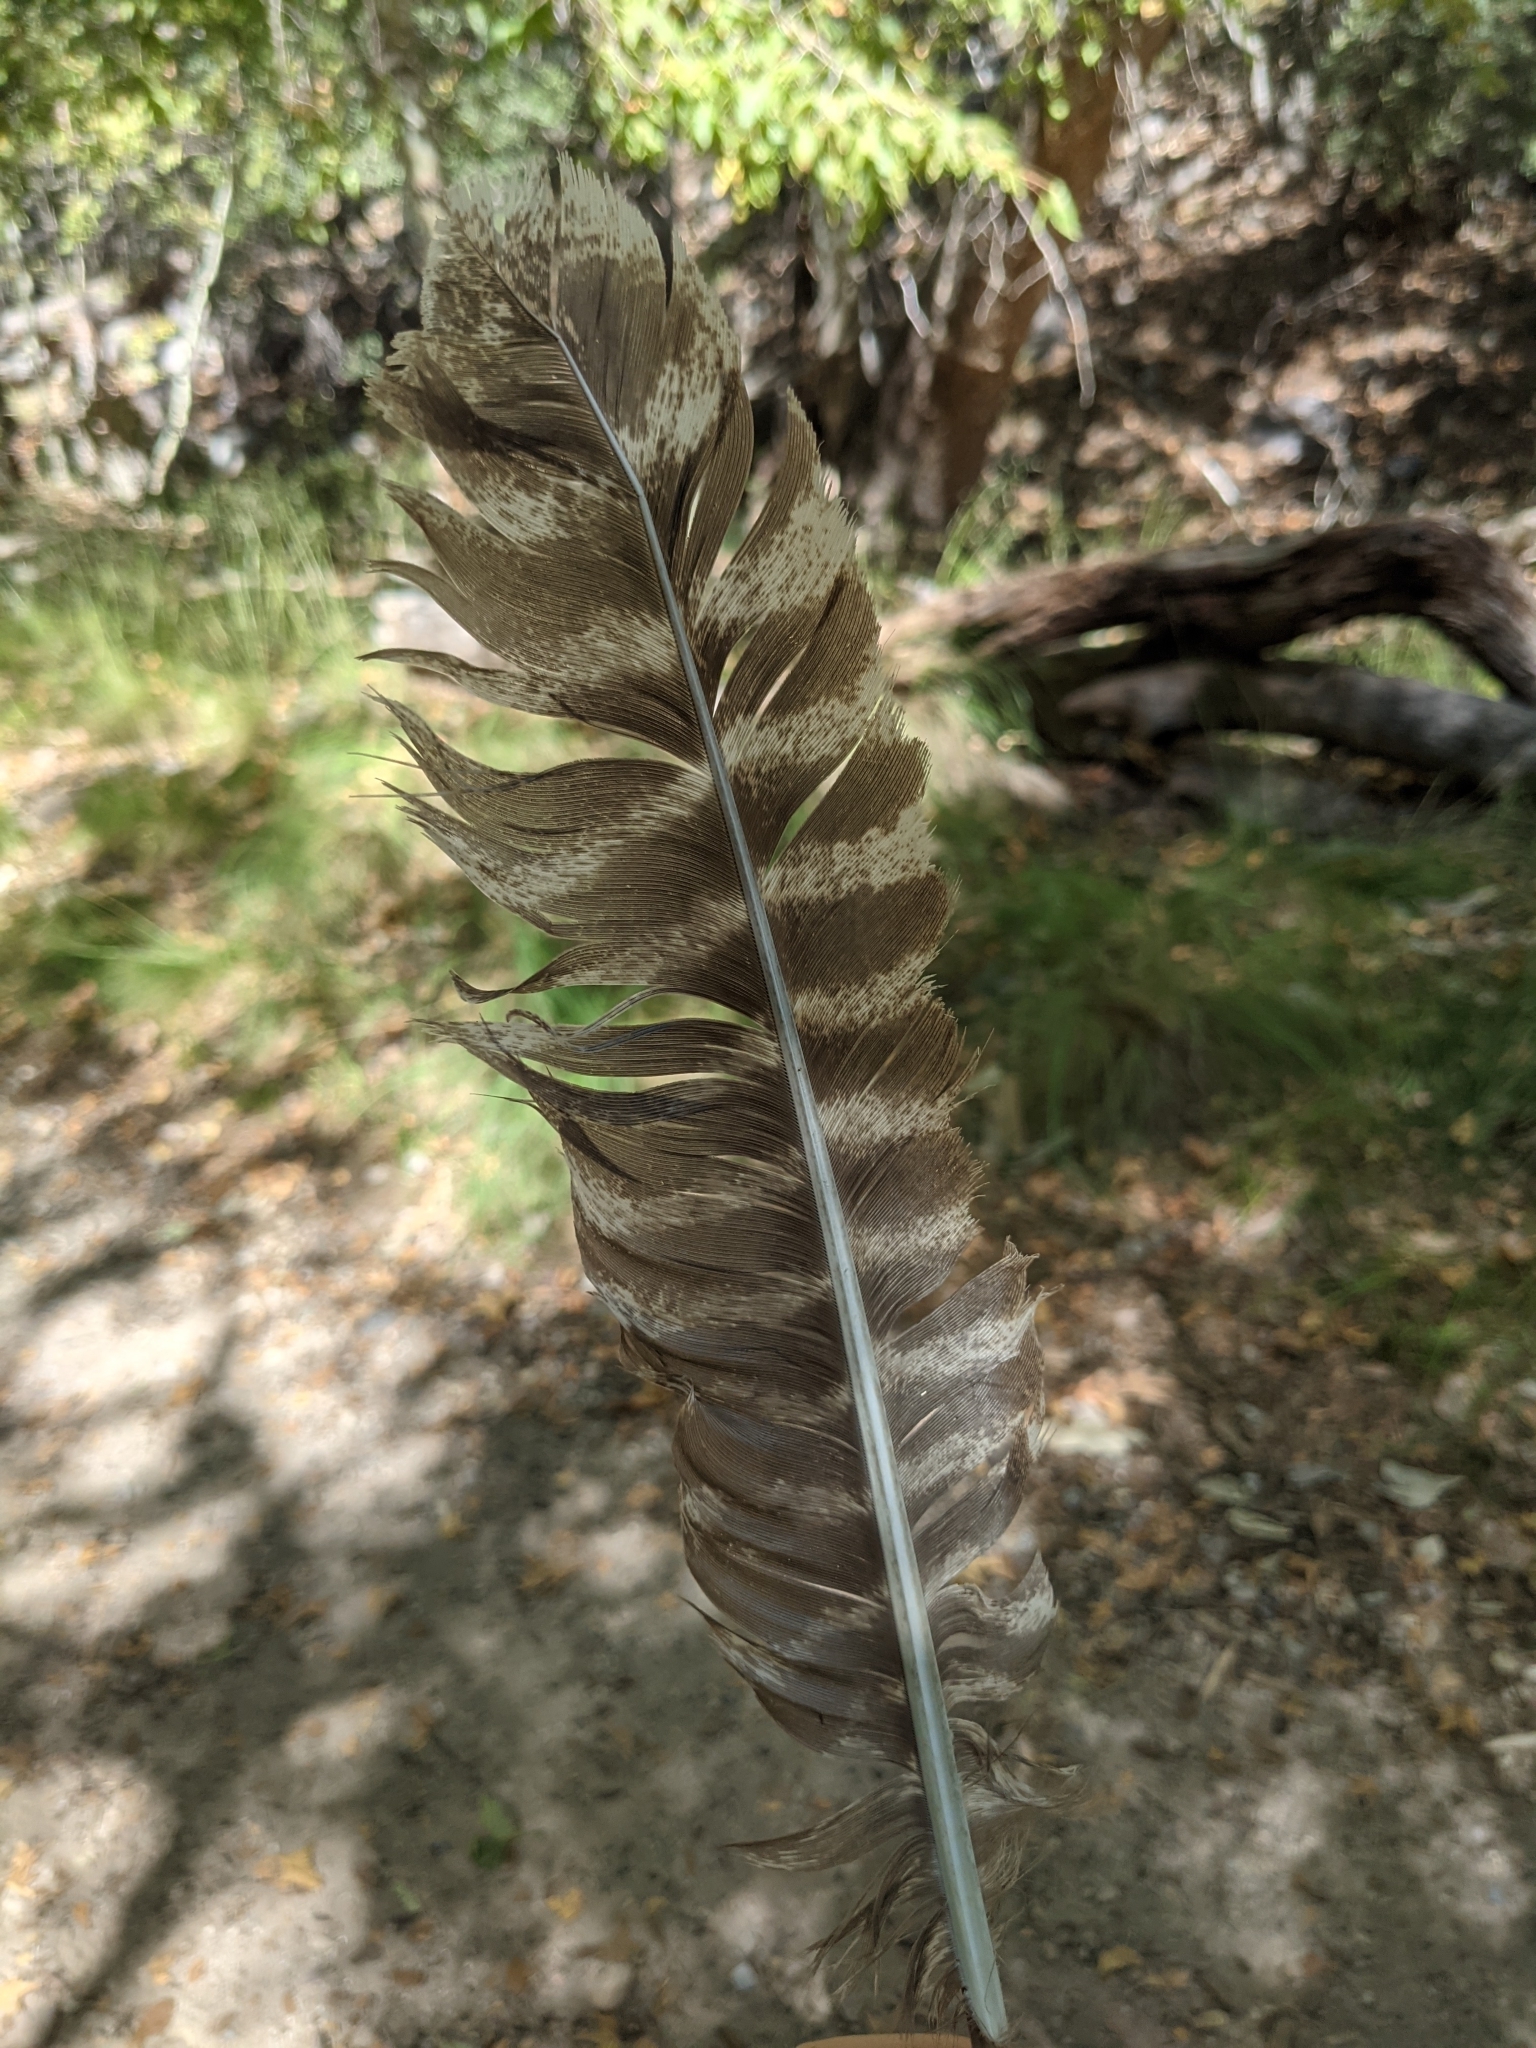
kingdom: Animalia
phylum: Chordata
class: Aves
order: Galliformes
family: Phasianidae
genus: Meleagris
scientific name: Meleagris gallopavo
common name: Wild turkey
